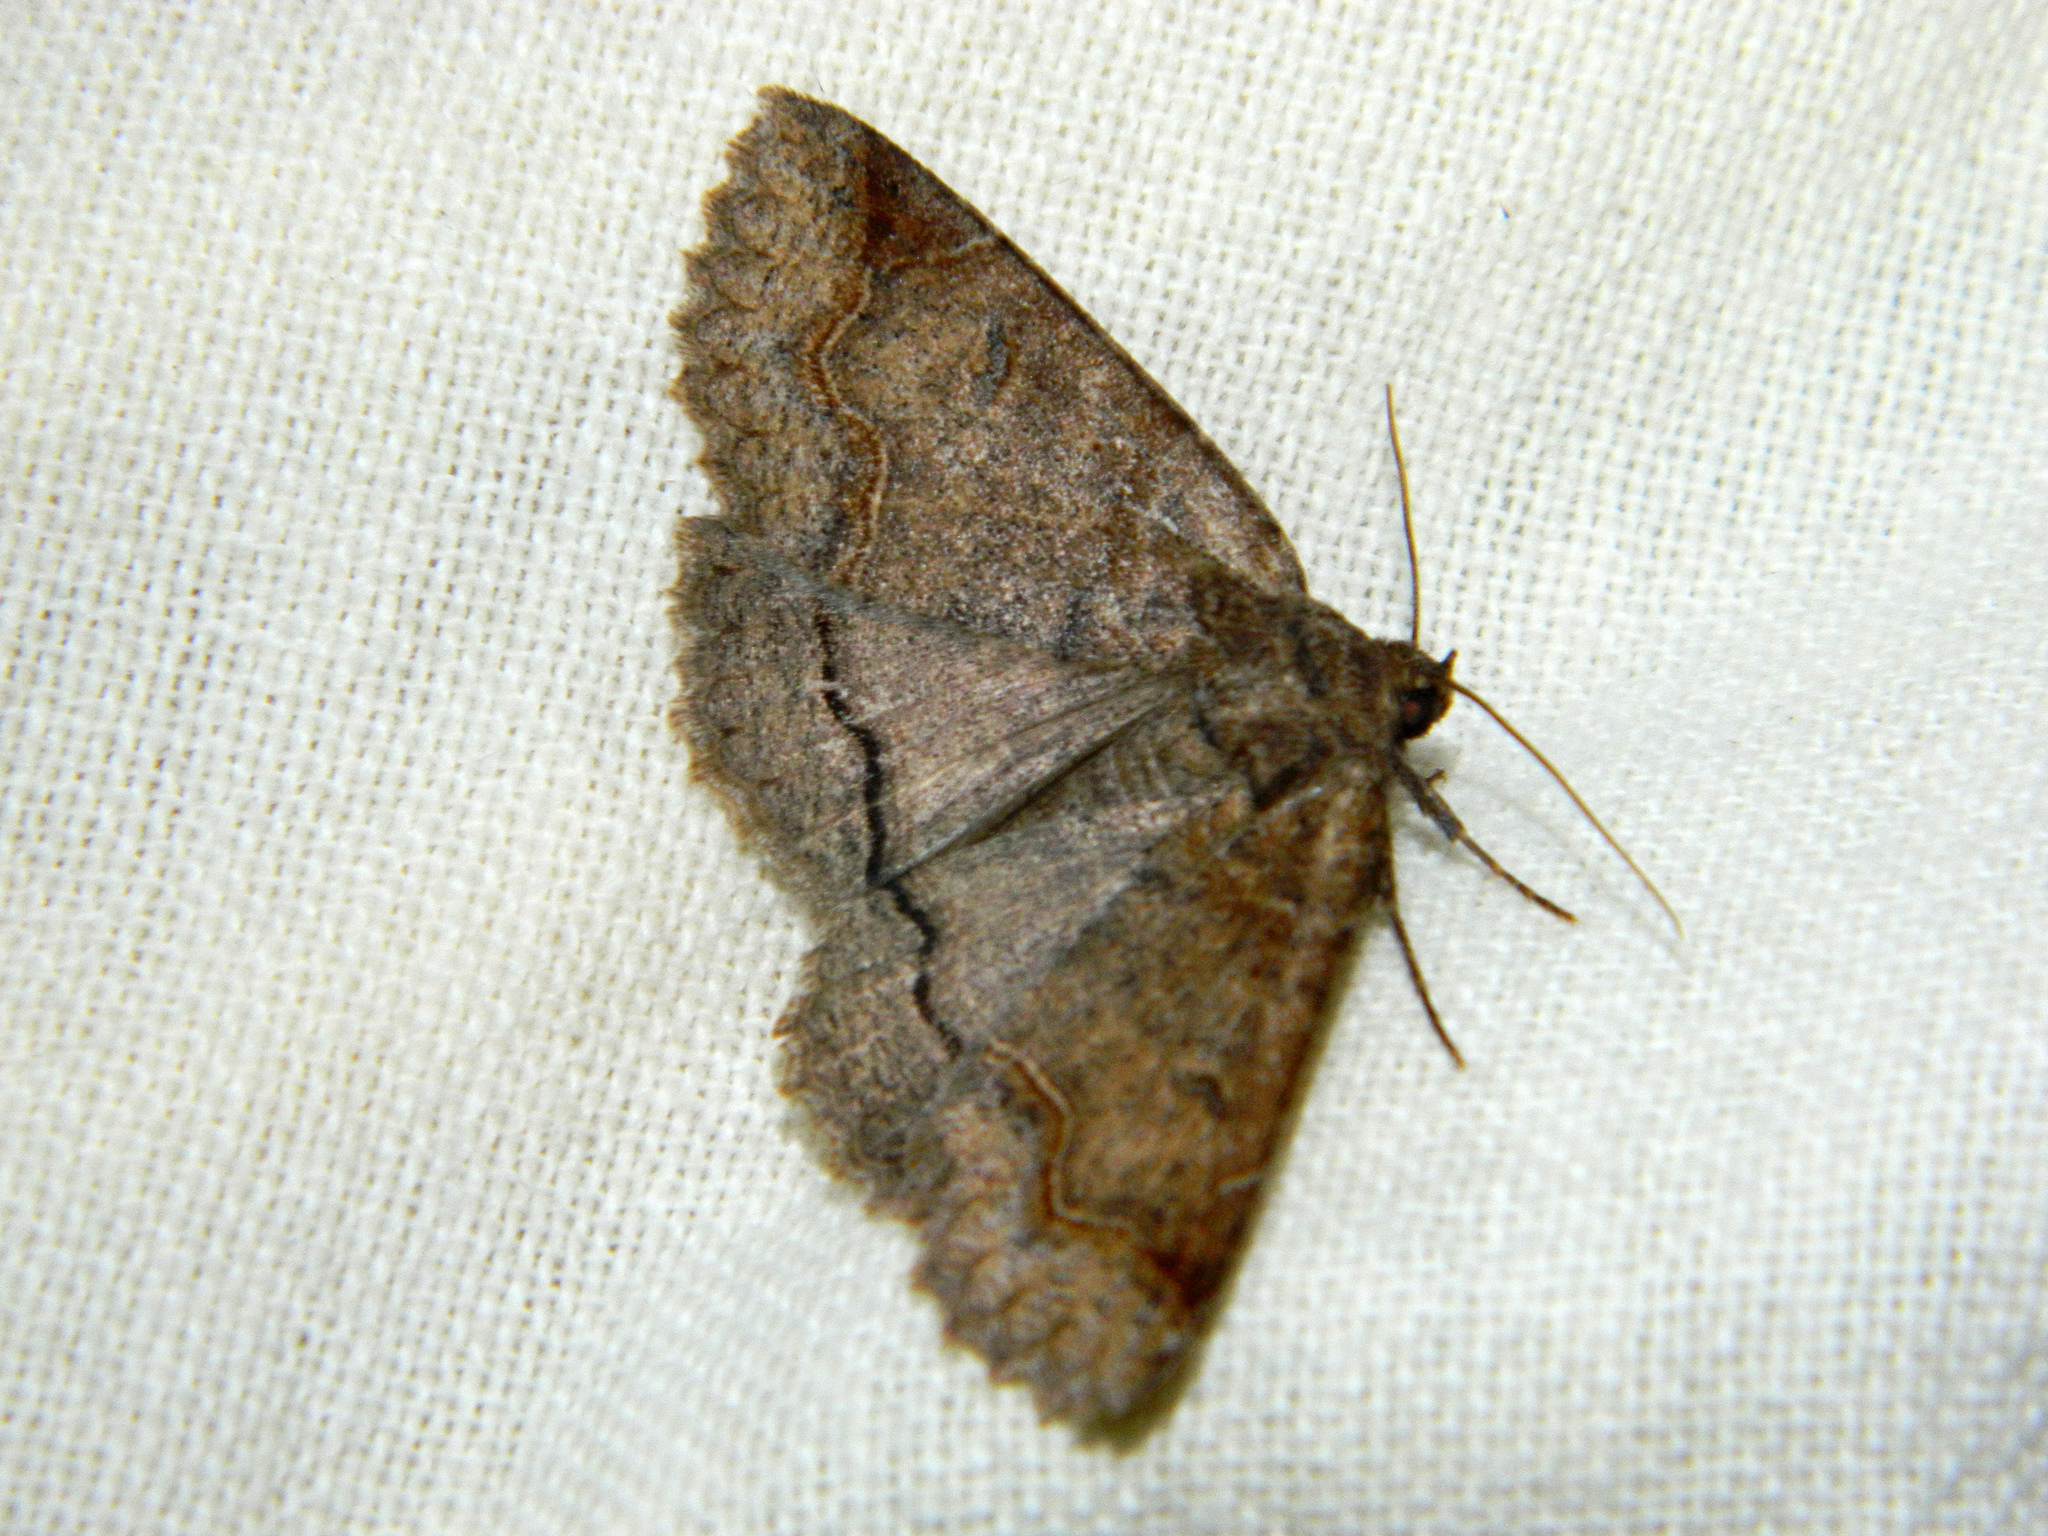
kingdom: Animalia
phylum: Arthropoda
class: Insecta
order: Lepidoptera
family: Erebidae
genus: Zale
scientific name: Zale unilineata
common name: One-lined zale moth
